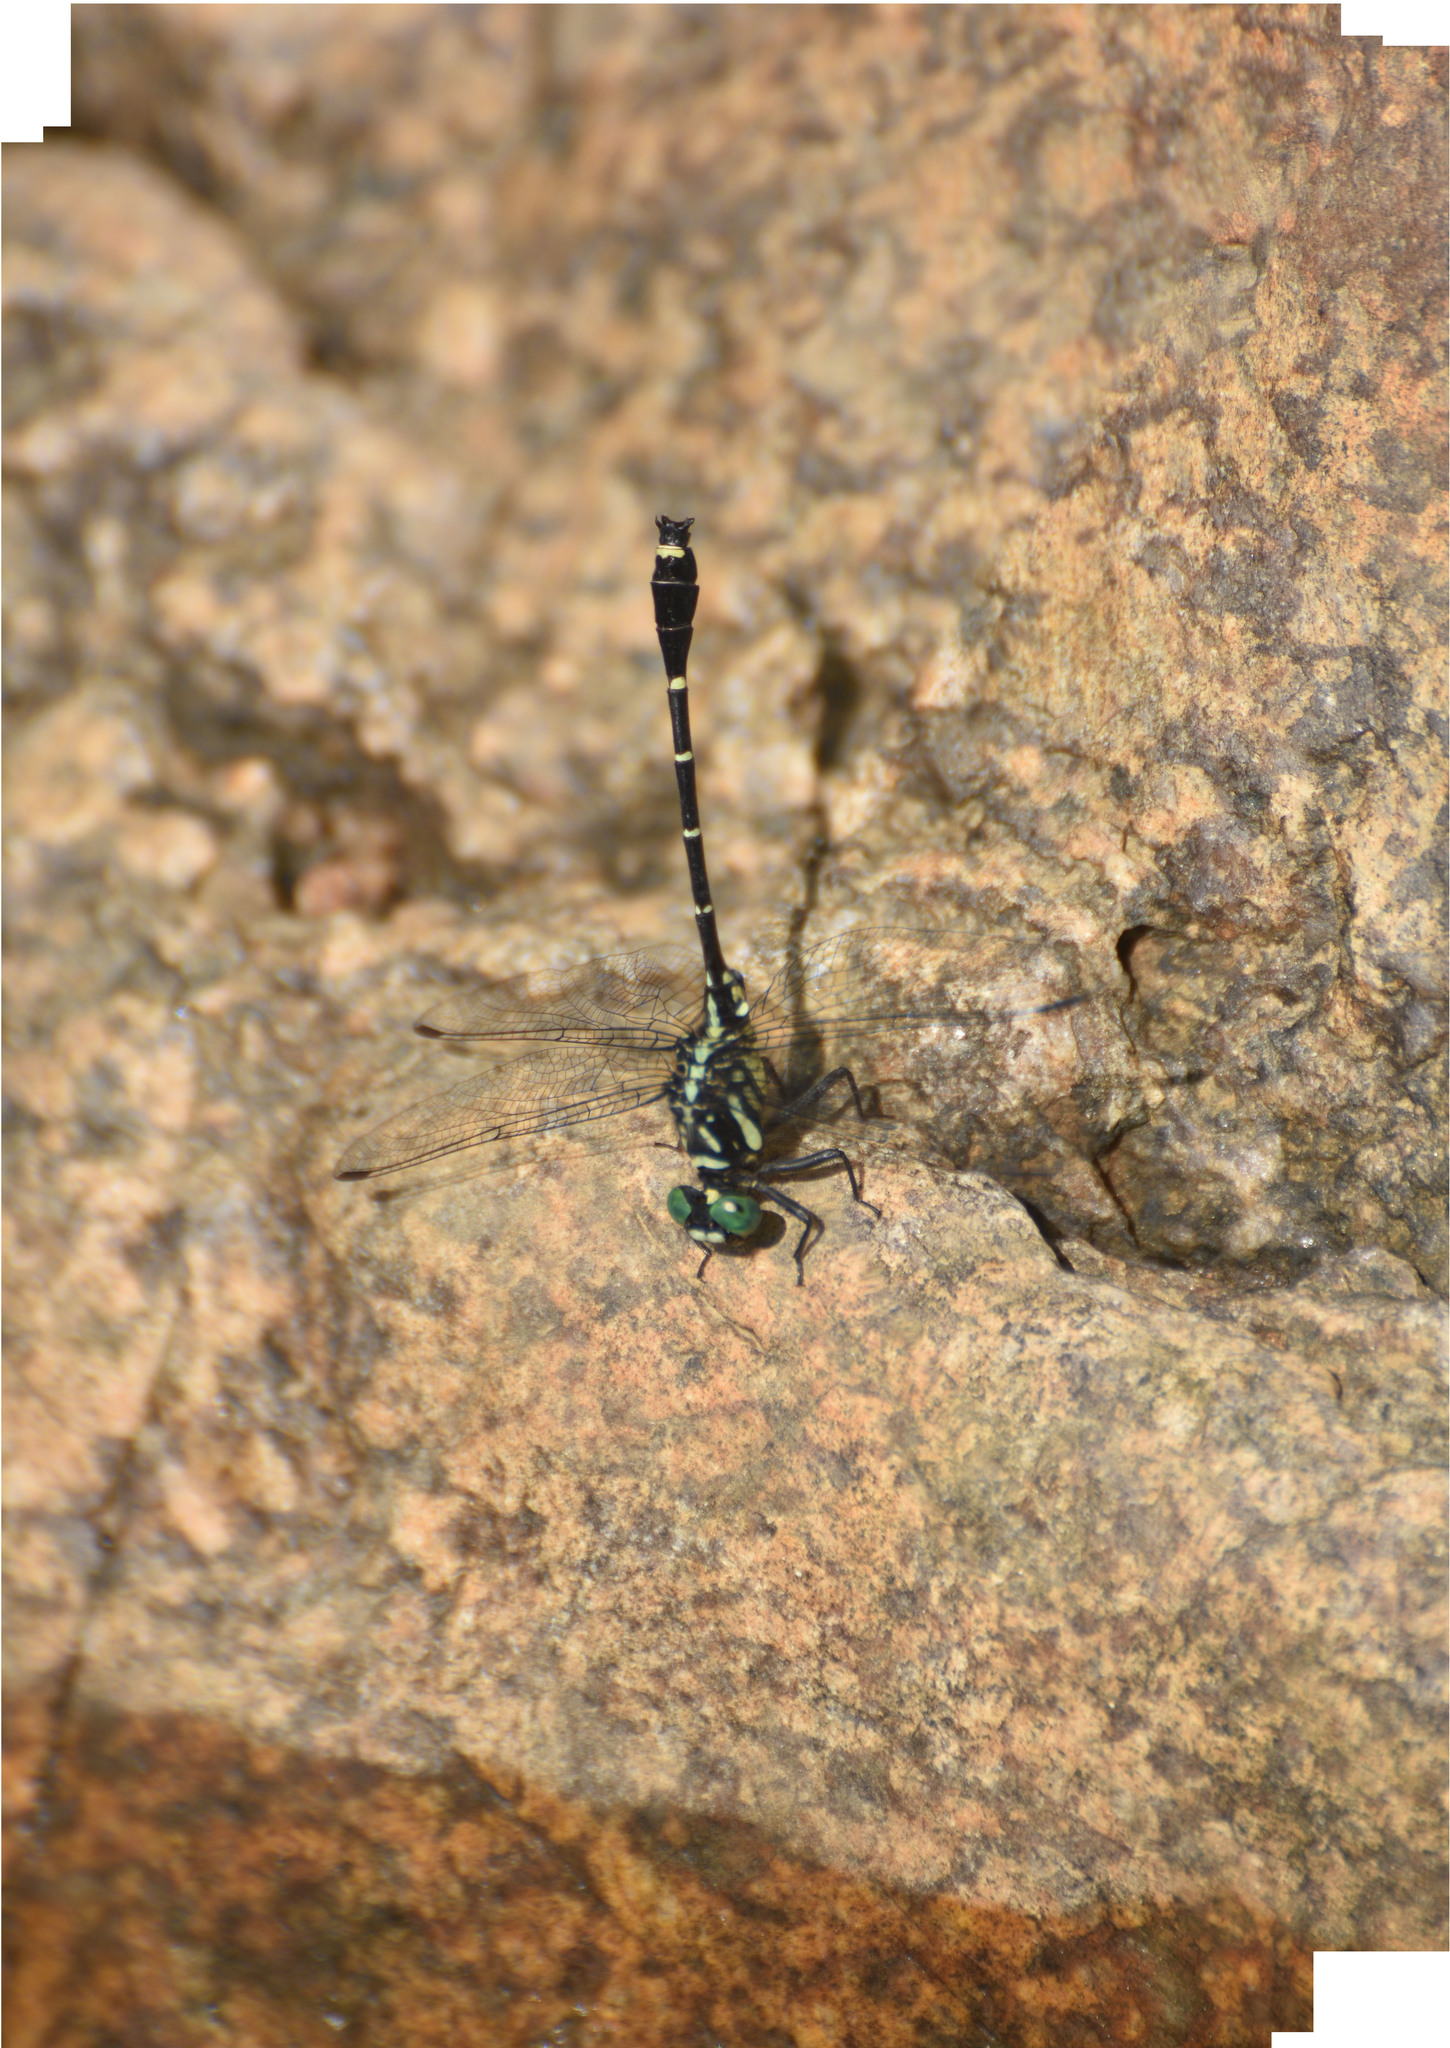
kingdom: Animalia
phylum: Arthropoda
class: Insecta
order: Odonata
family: Gomphidae
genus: Burmagomphus
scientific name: Burmagomphus laidlawi
